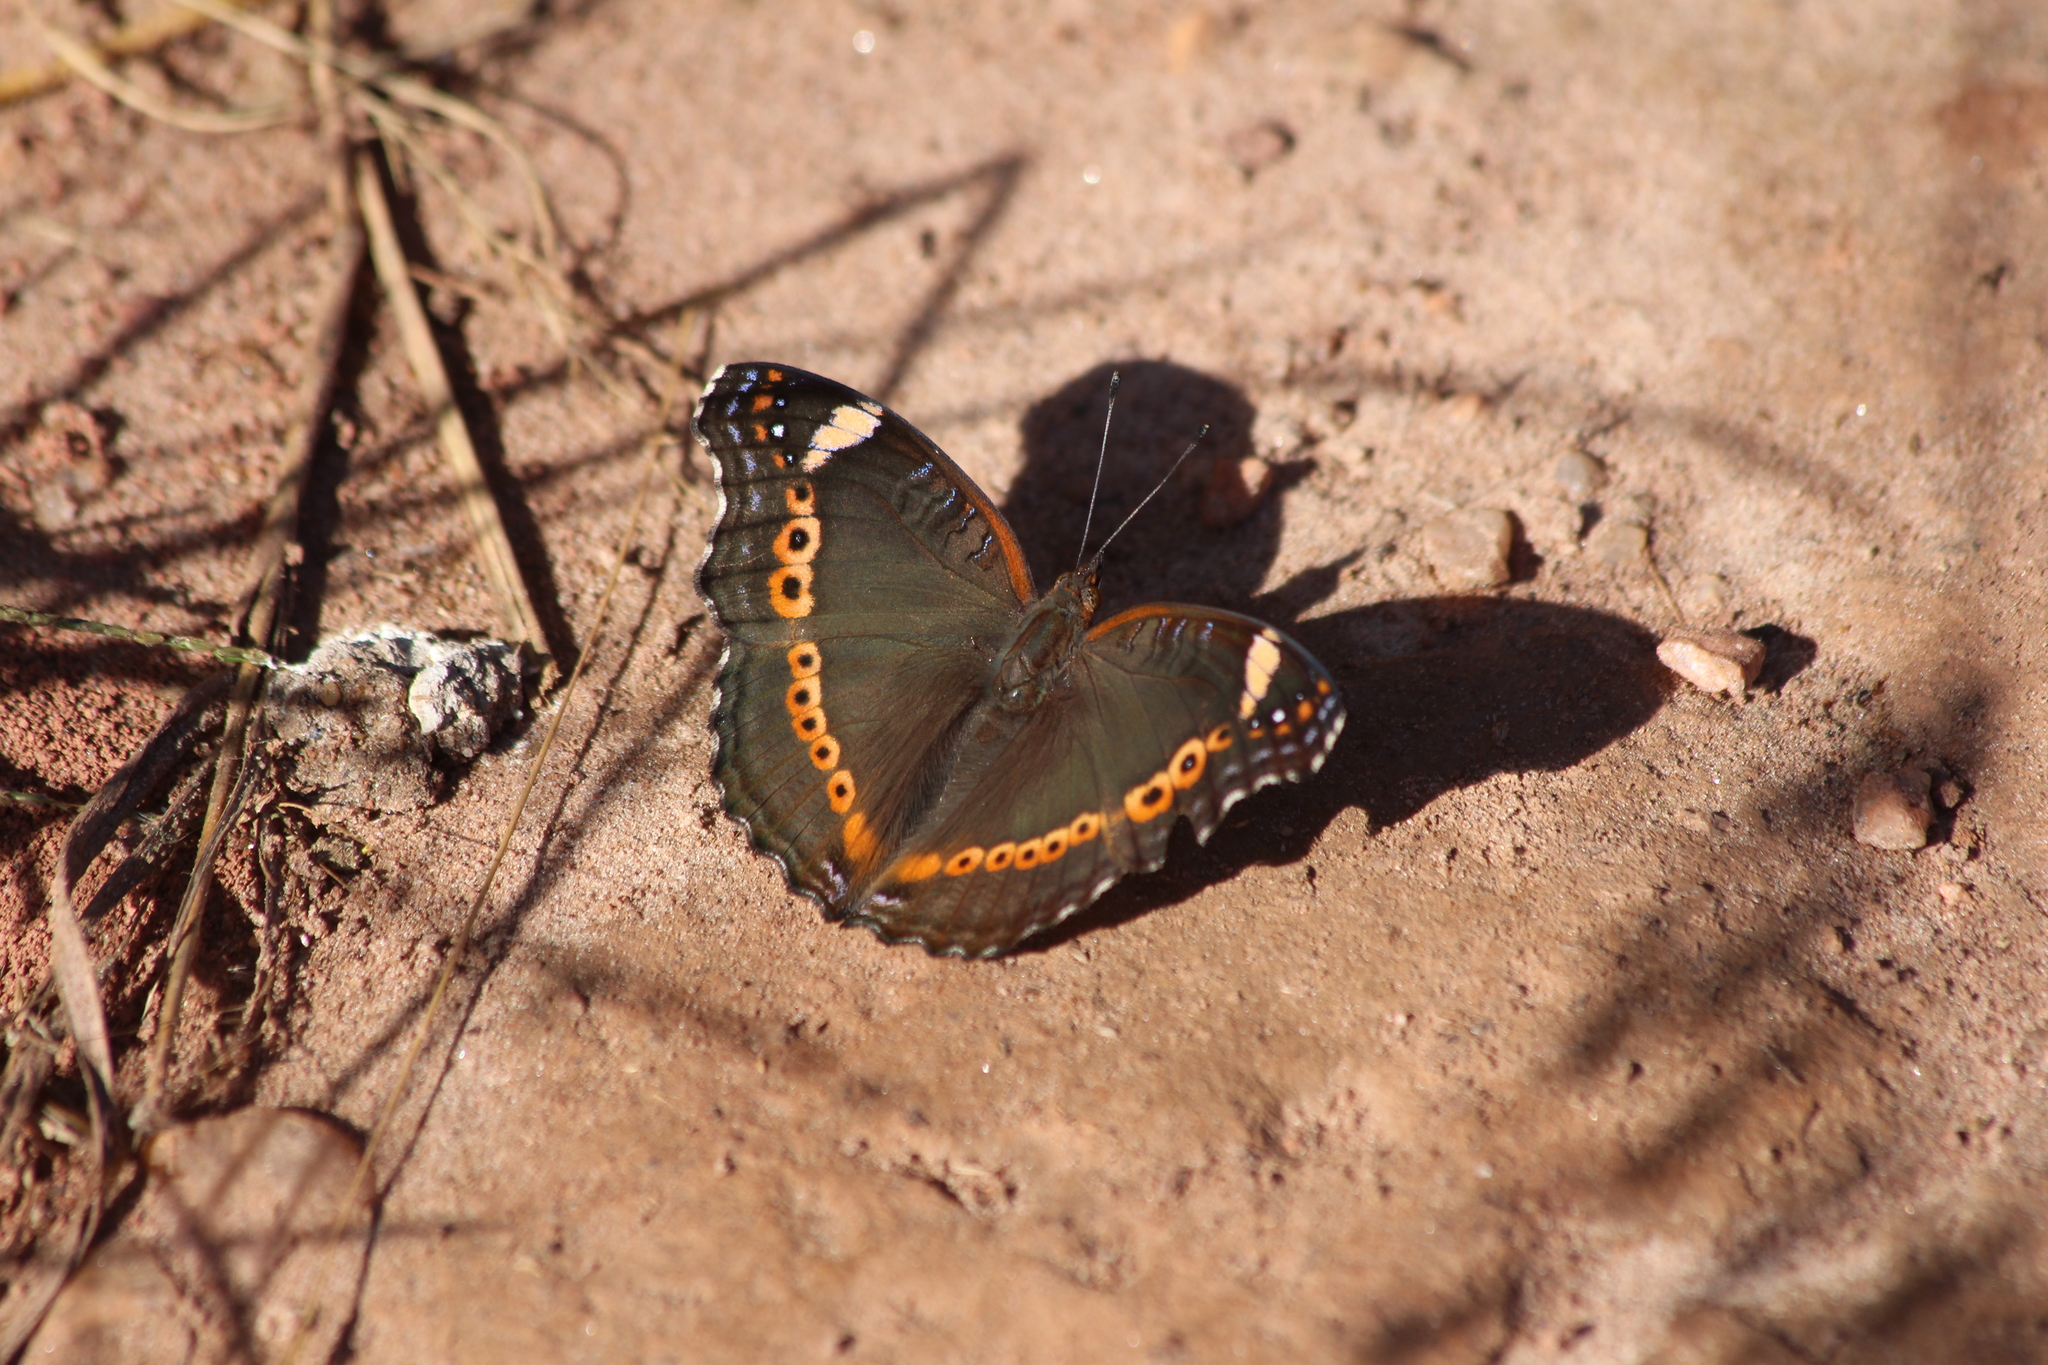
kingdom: Animalia
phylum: Arthropoda
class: Insecta
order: Lepidoptera
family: Nymphalidae
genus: Junonia
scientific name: Junonia archesia
